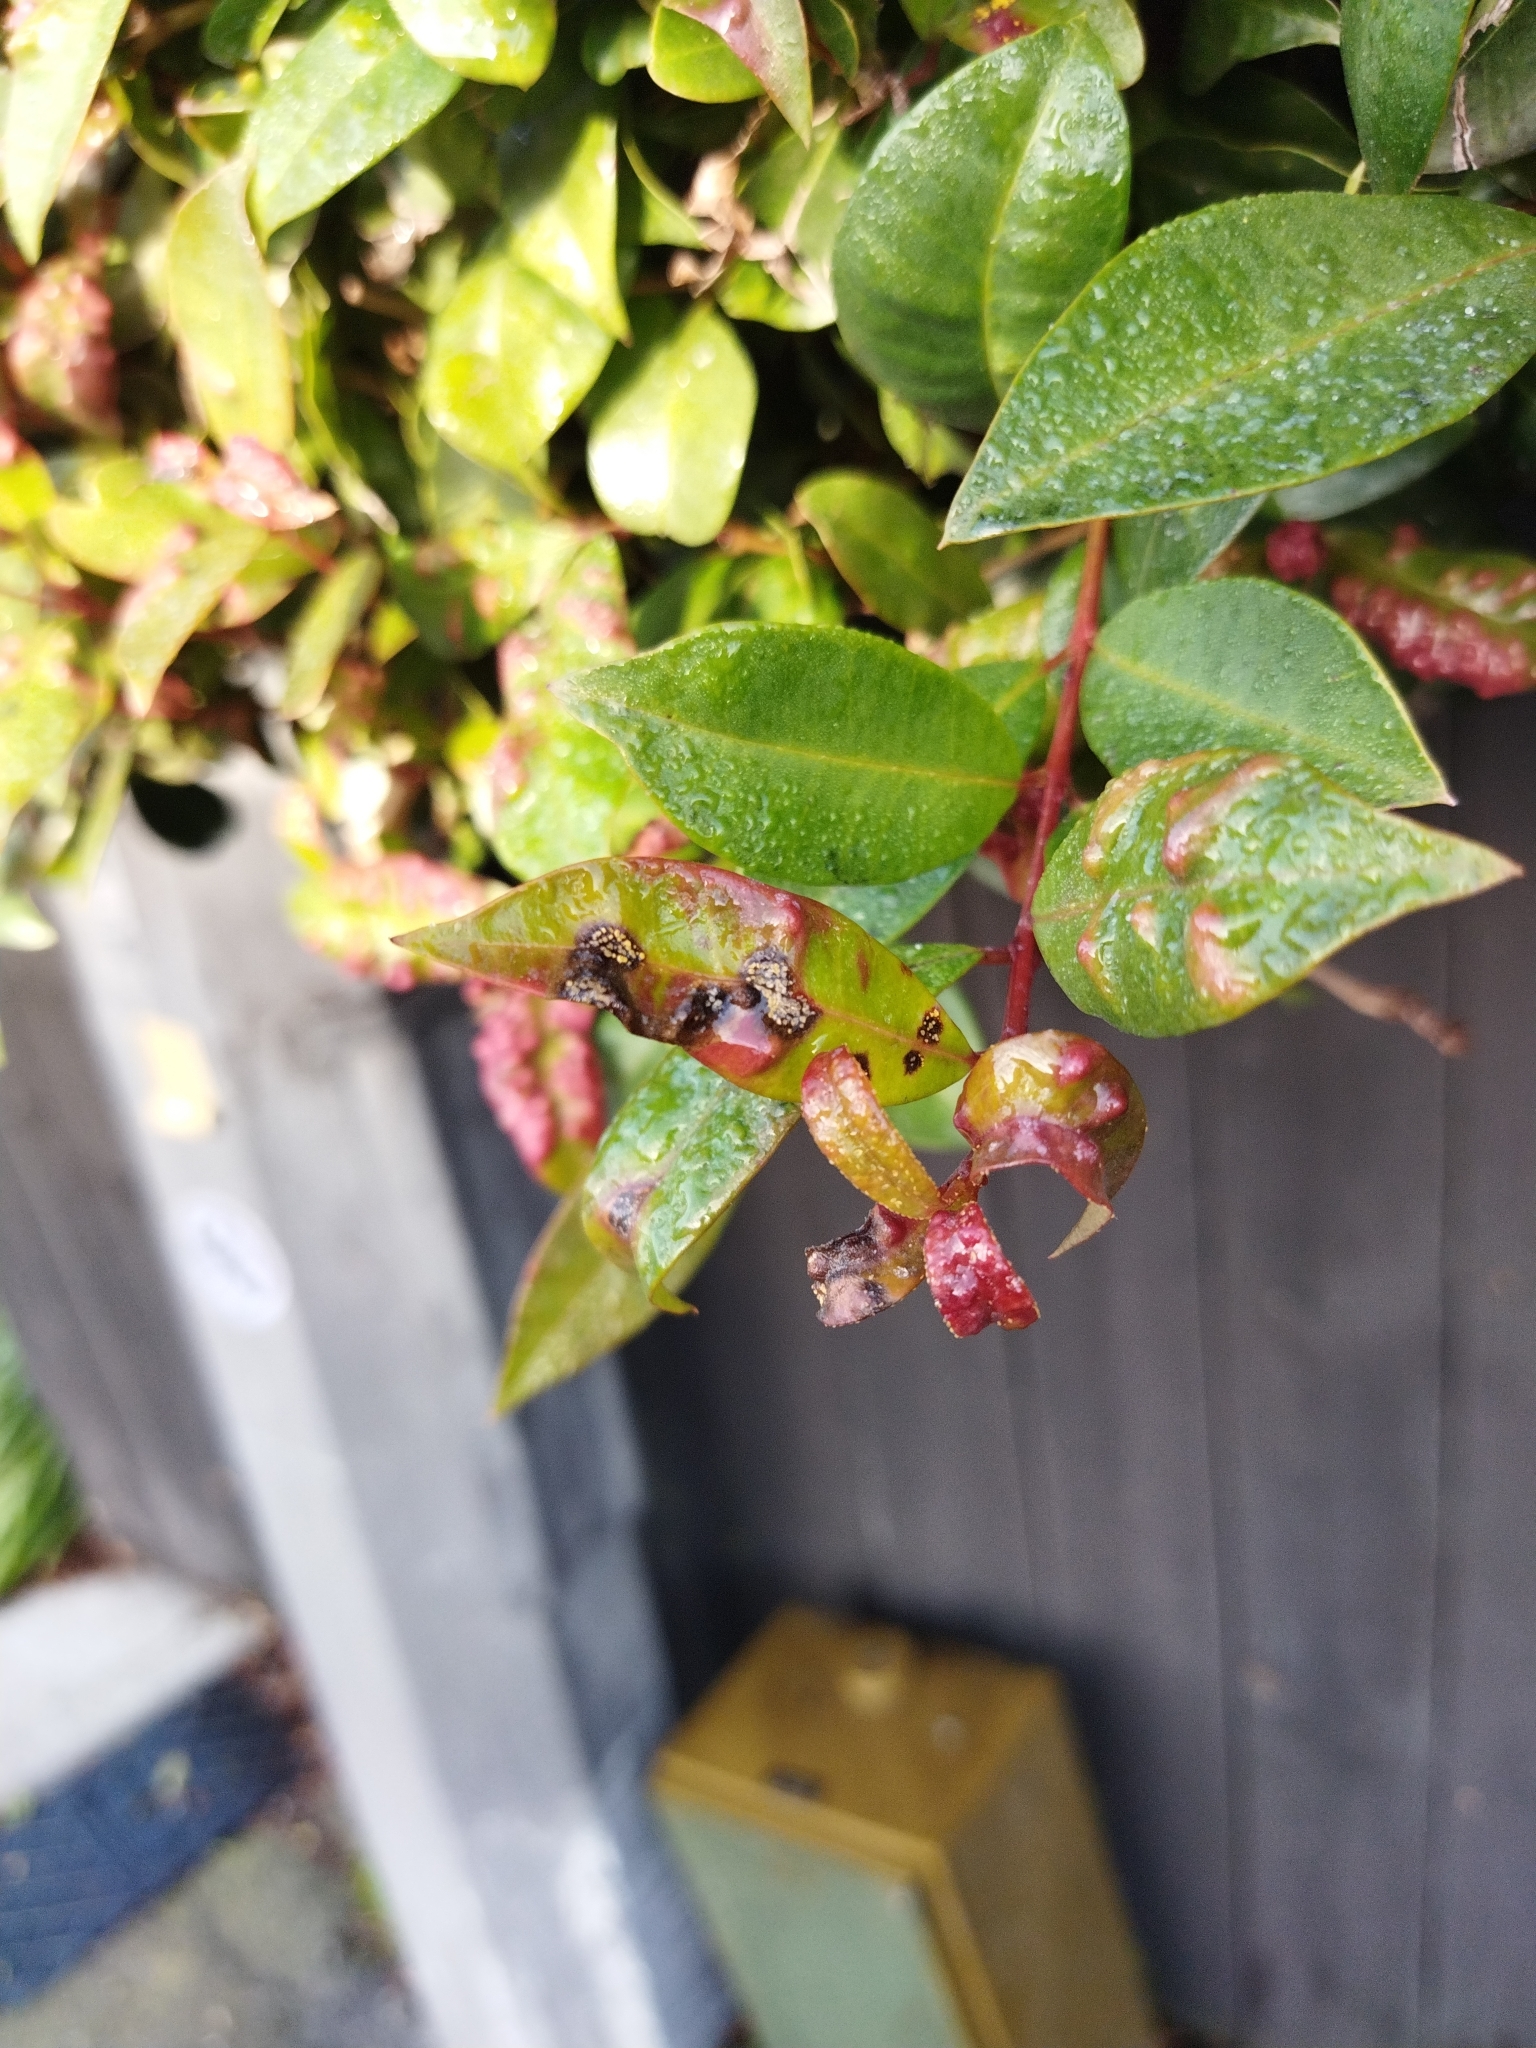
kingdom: Fungi
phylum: Basidiomycota
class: Pucciniomycetes
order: Pucciniales
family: Sphaerophragmiaceae
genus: Austropuccinia
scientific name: Austropuccinia psidii
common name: Myrtle rust
